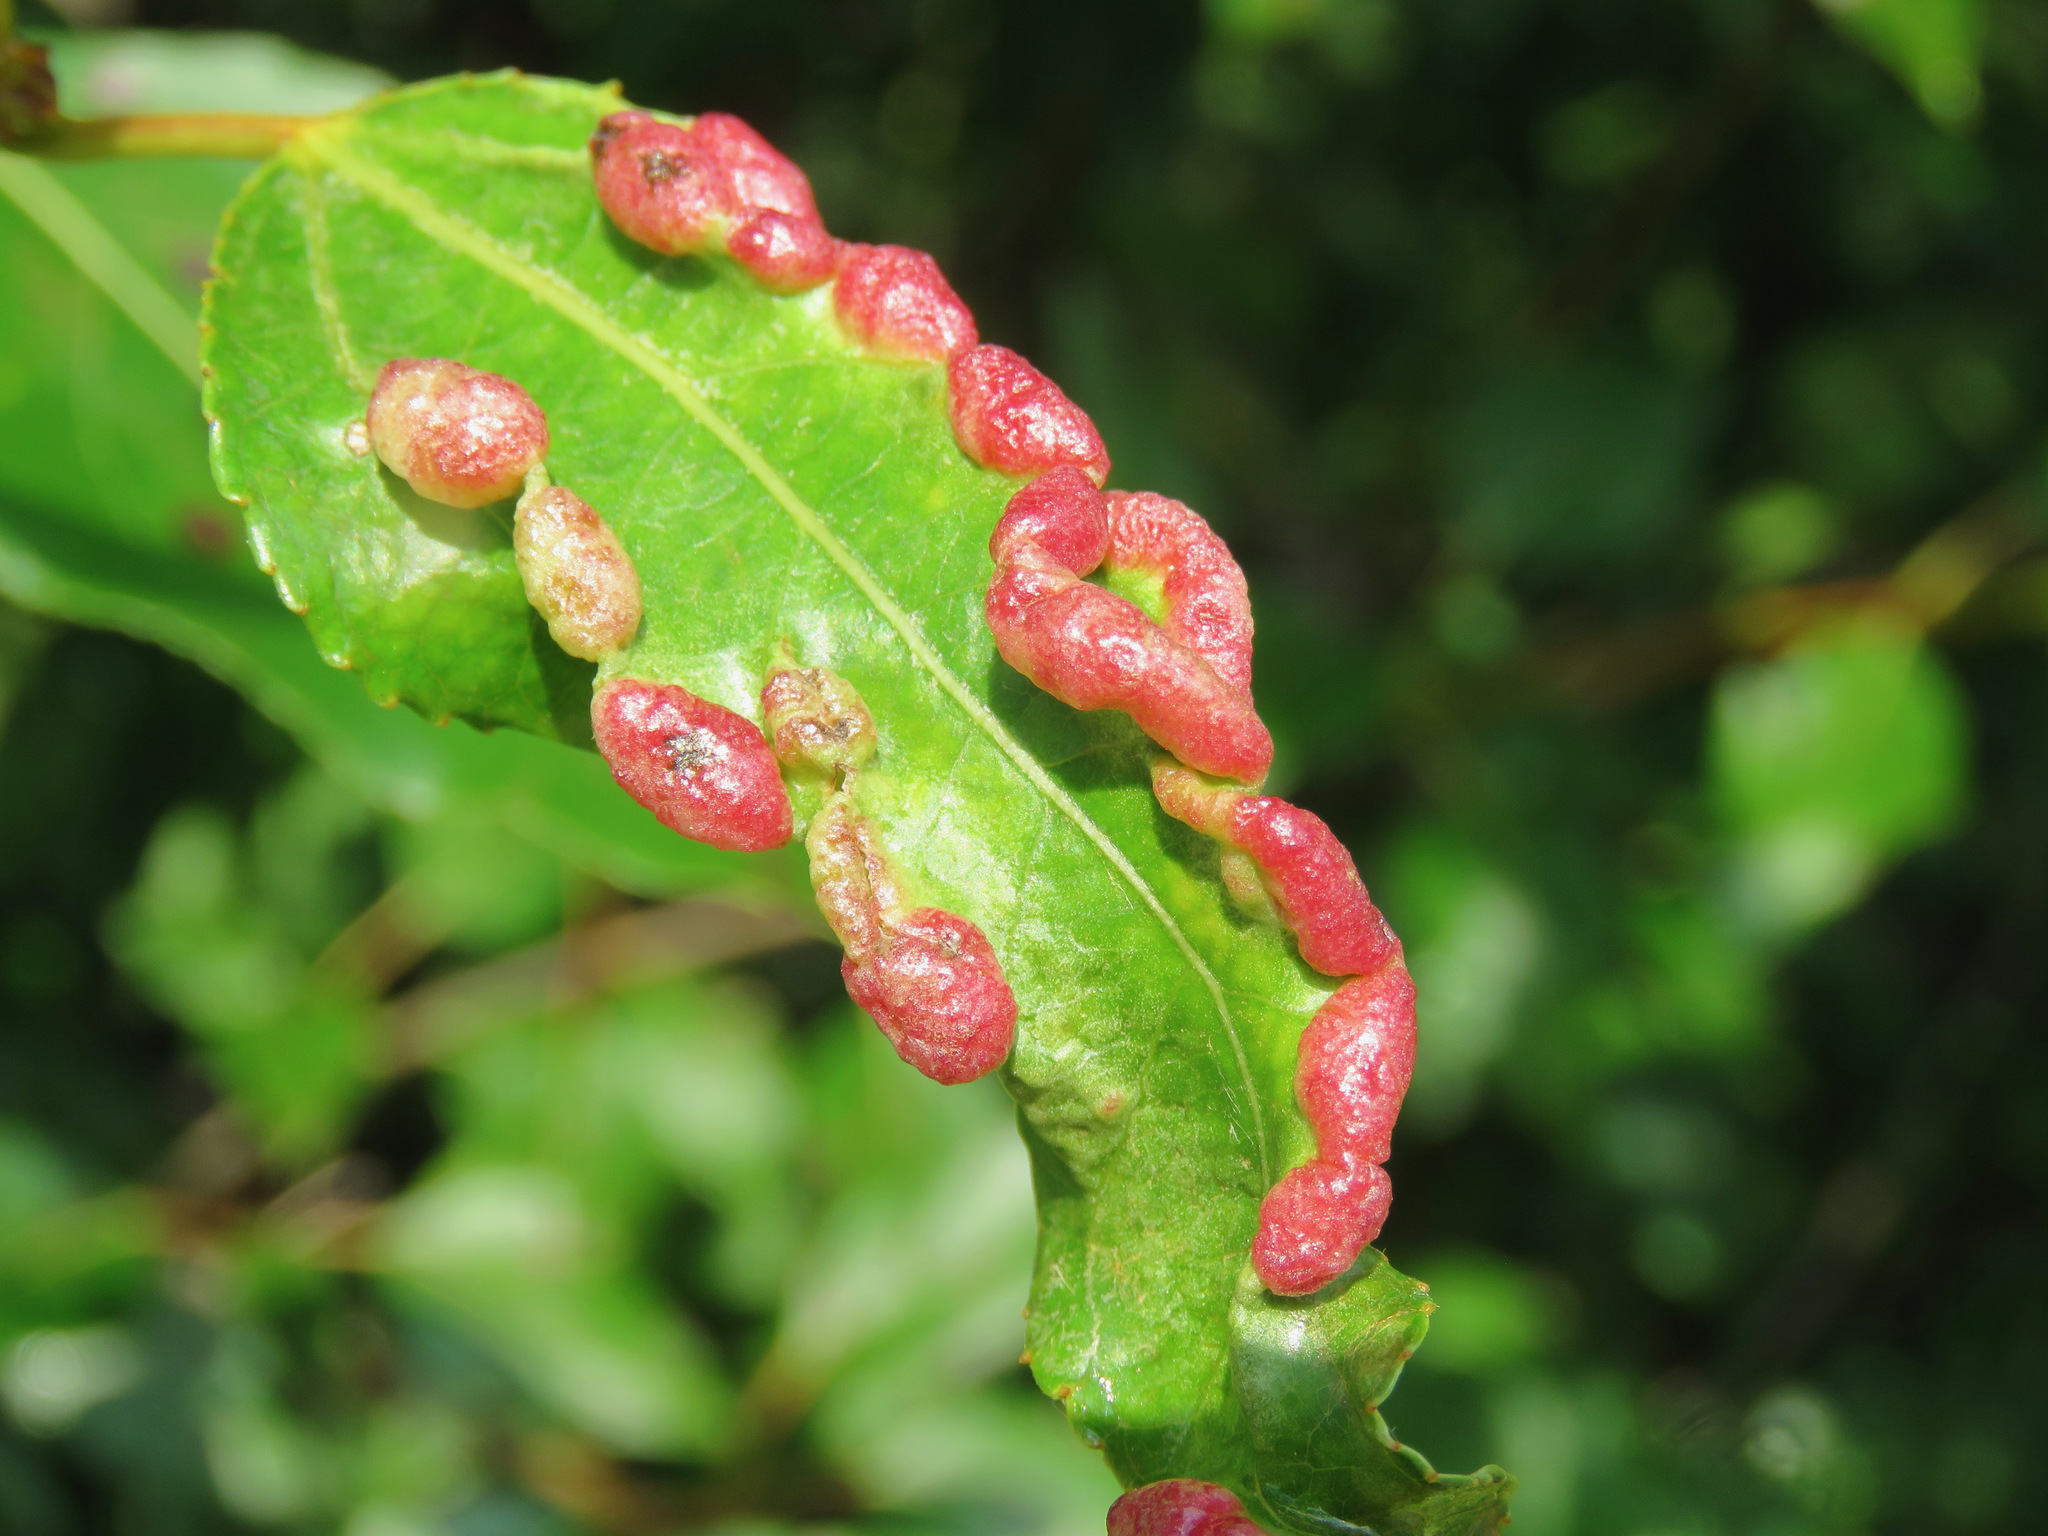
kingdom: Animalia
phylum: Arthropoda
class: Insecta
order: Hemiptera
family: Aphididae
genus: Thecabius
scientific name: Thecabius populimonilis
